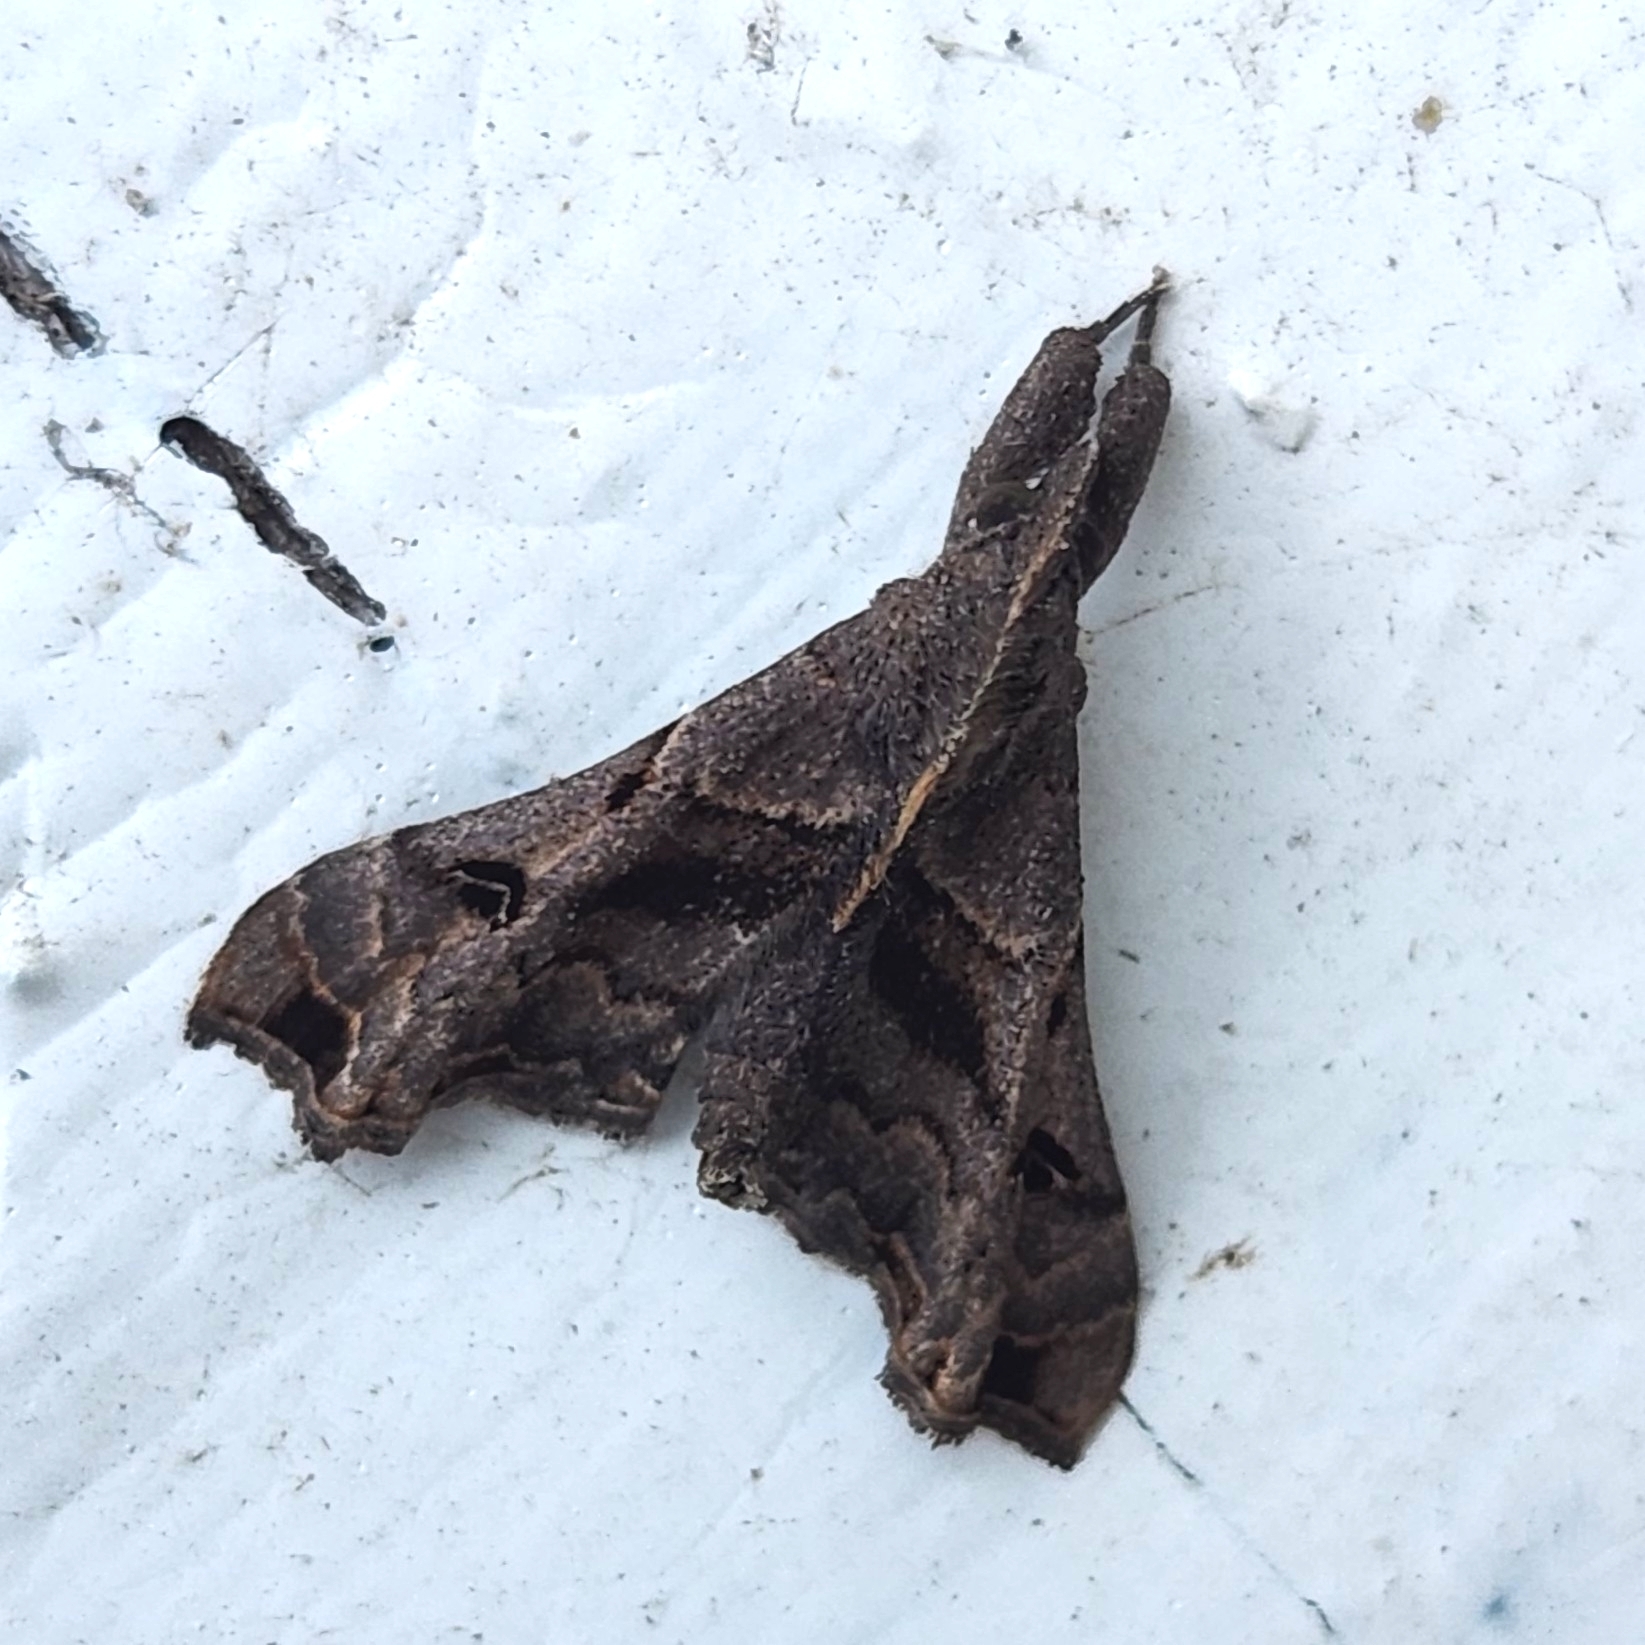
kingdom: Animalia
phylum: Arthropoda
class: Insecta
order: Lepidoptera
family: Erebidae
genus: Palthis
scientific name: Palthis asopialis
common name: Faint-spotted palthis moth
